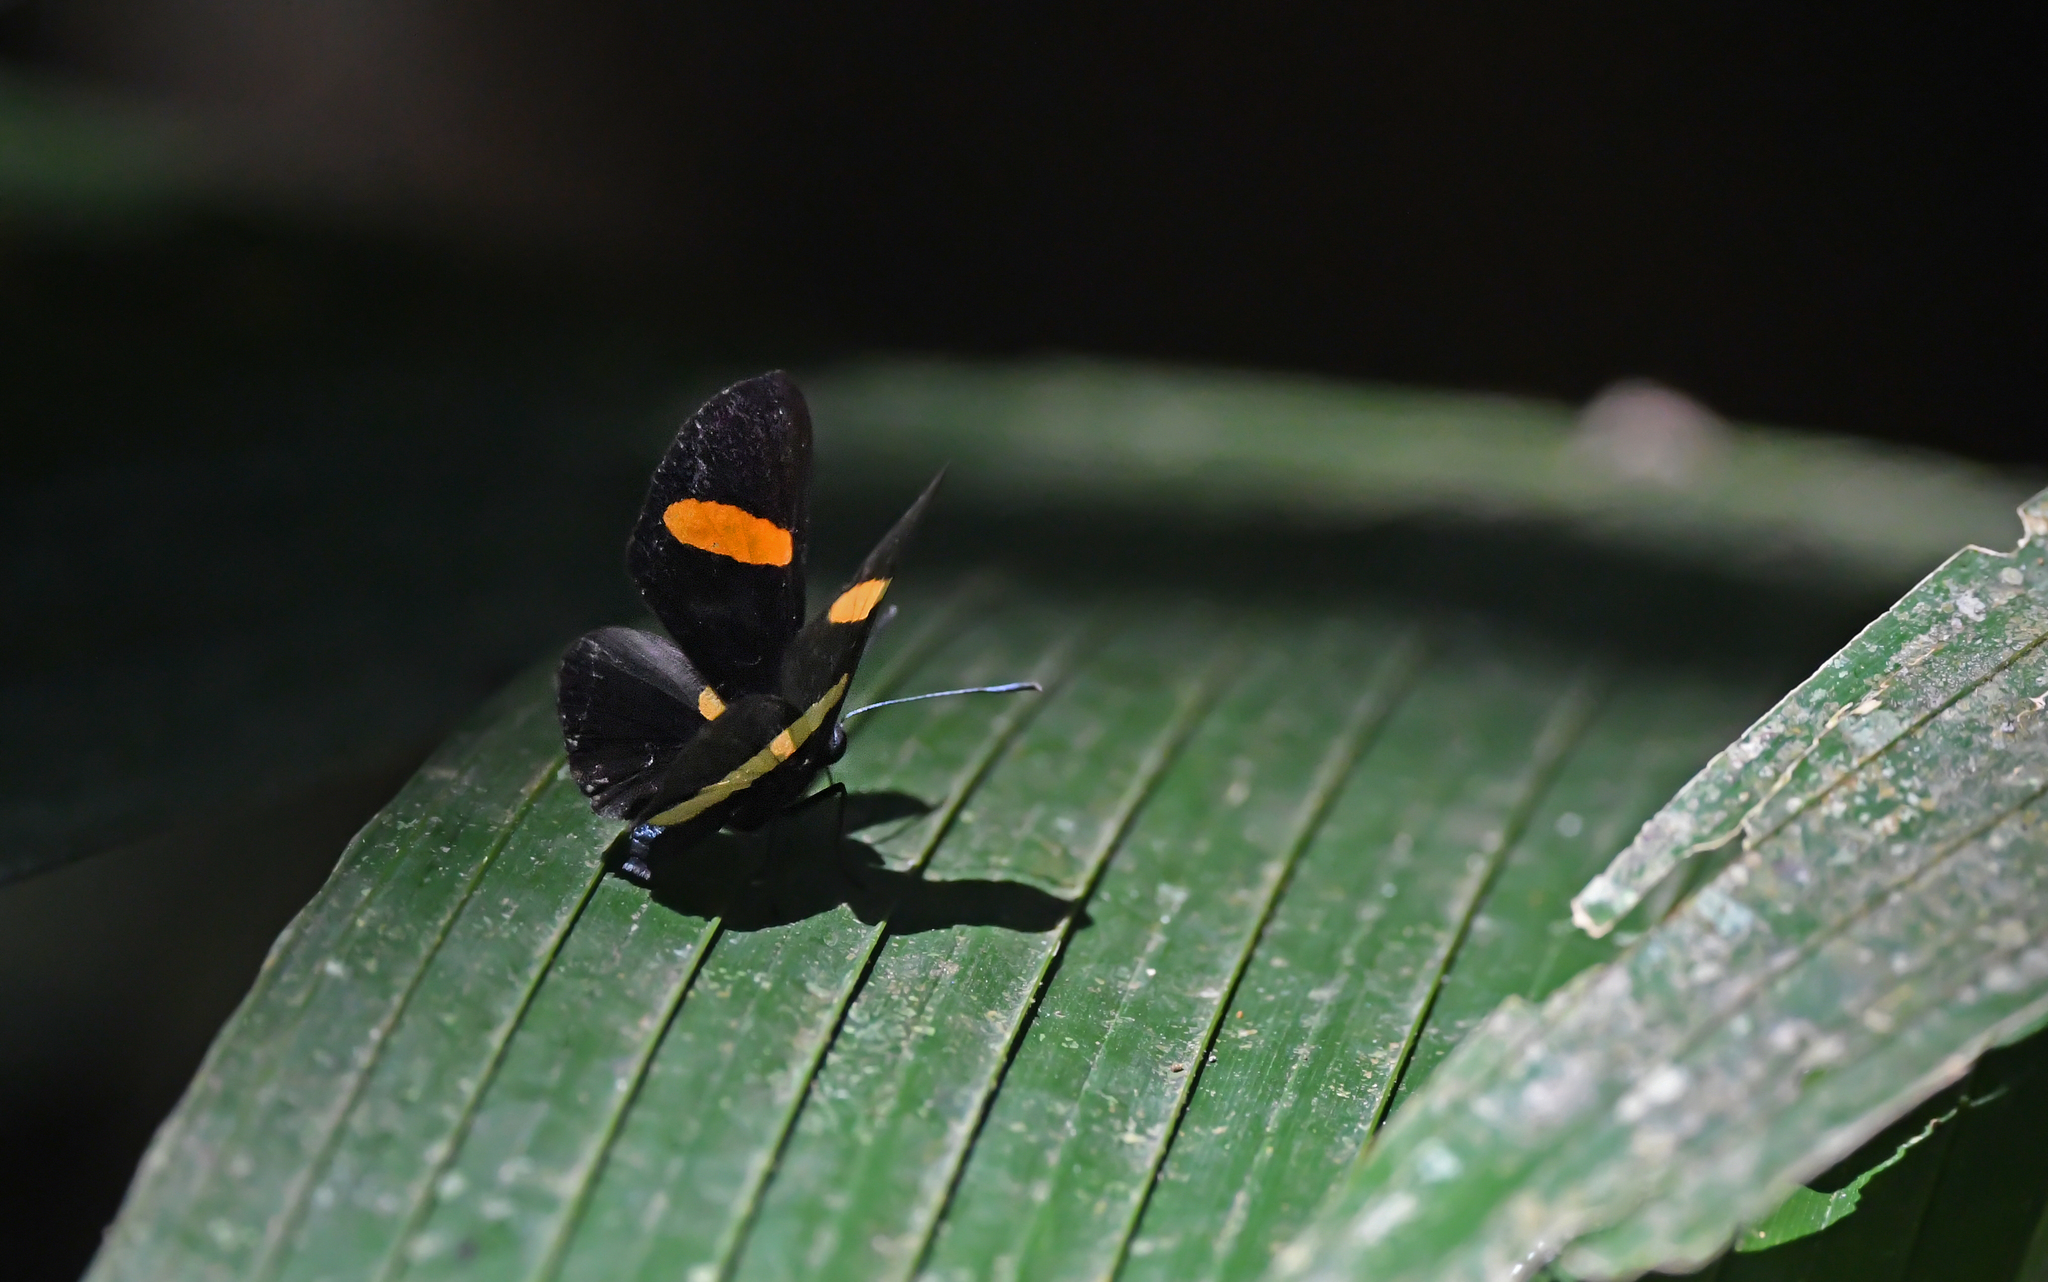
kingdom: Animalia
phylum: Arthropoda
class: Insecta
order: Lepidoptera
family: Lycaenidae
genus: Melanis
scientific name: Melanis agyrtus
